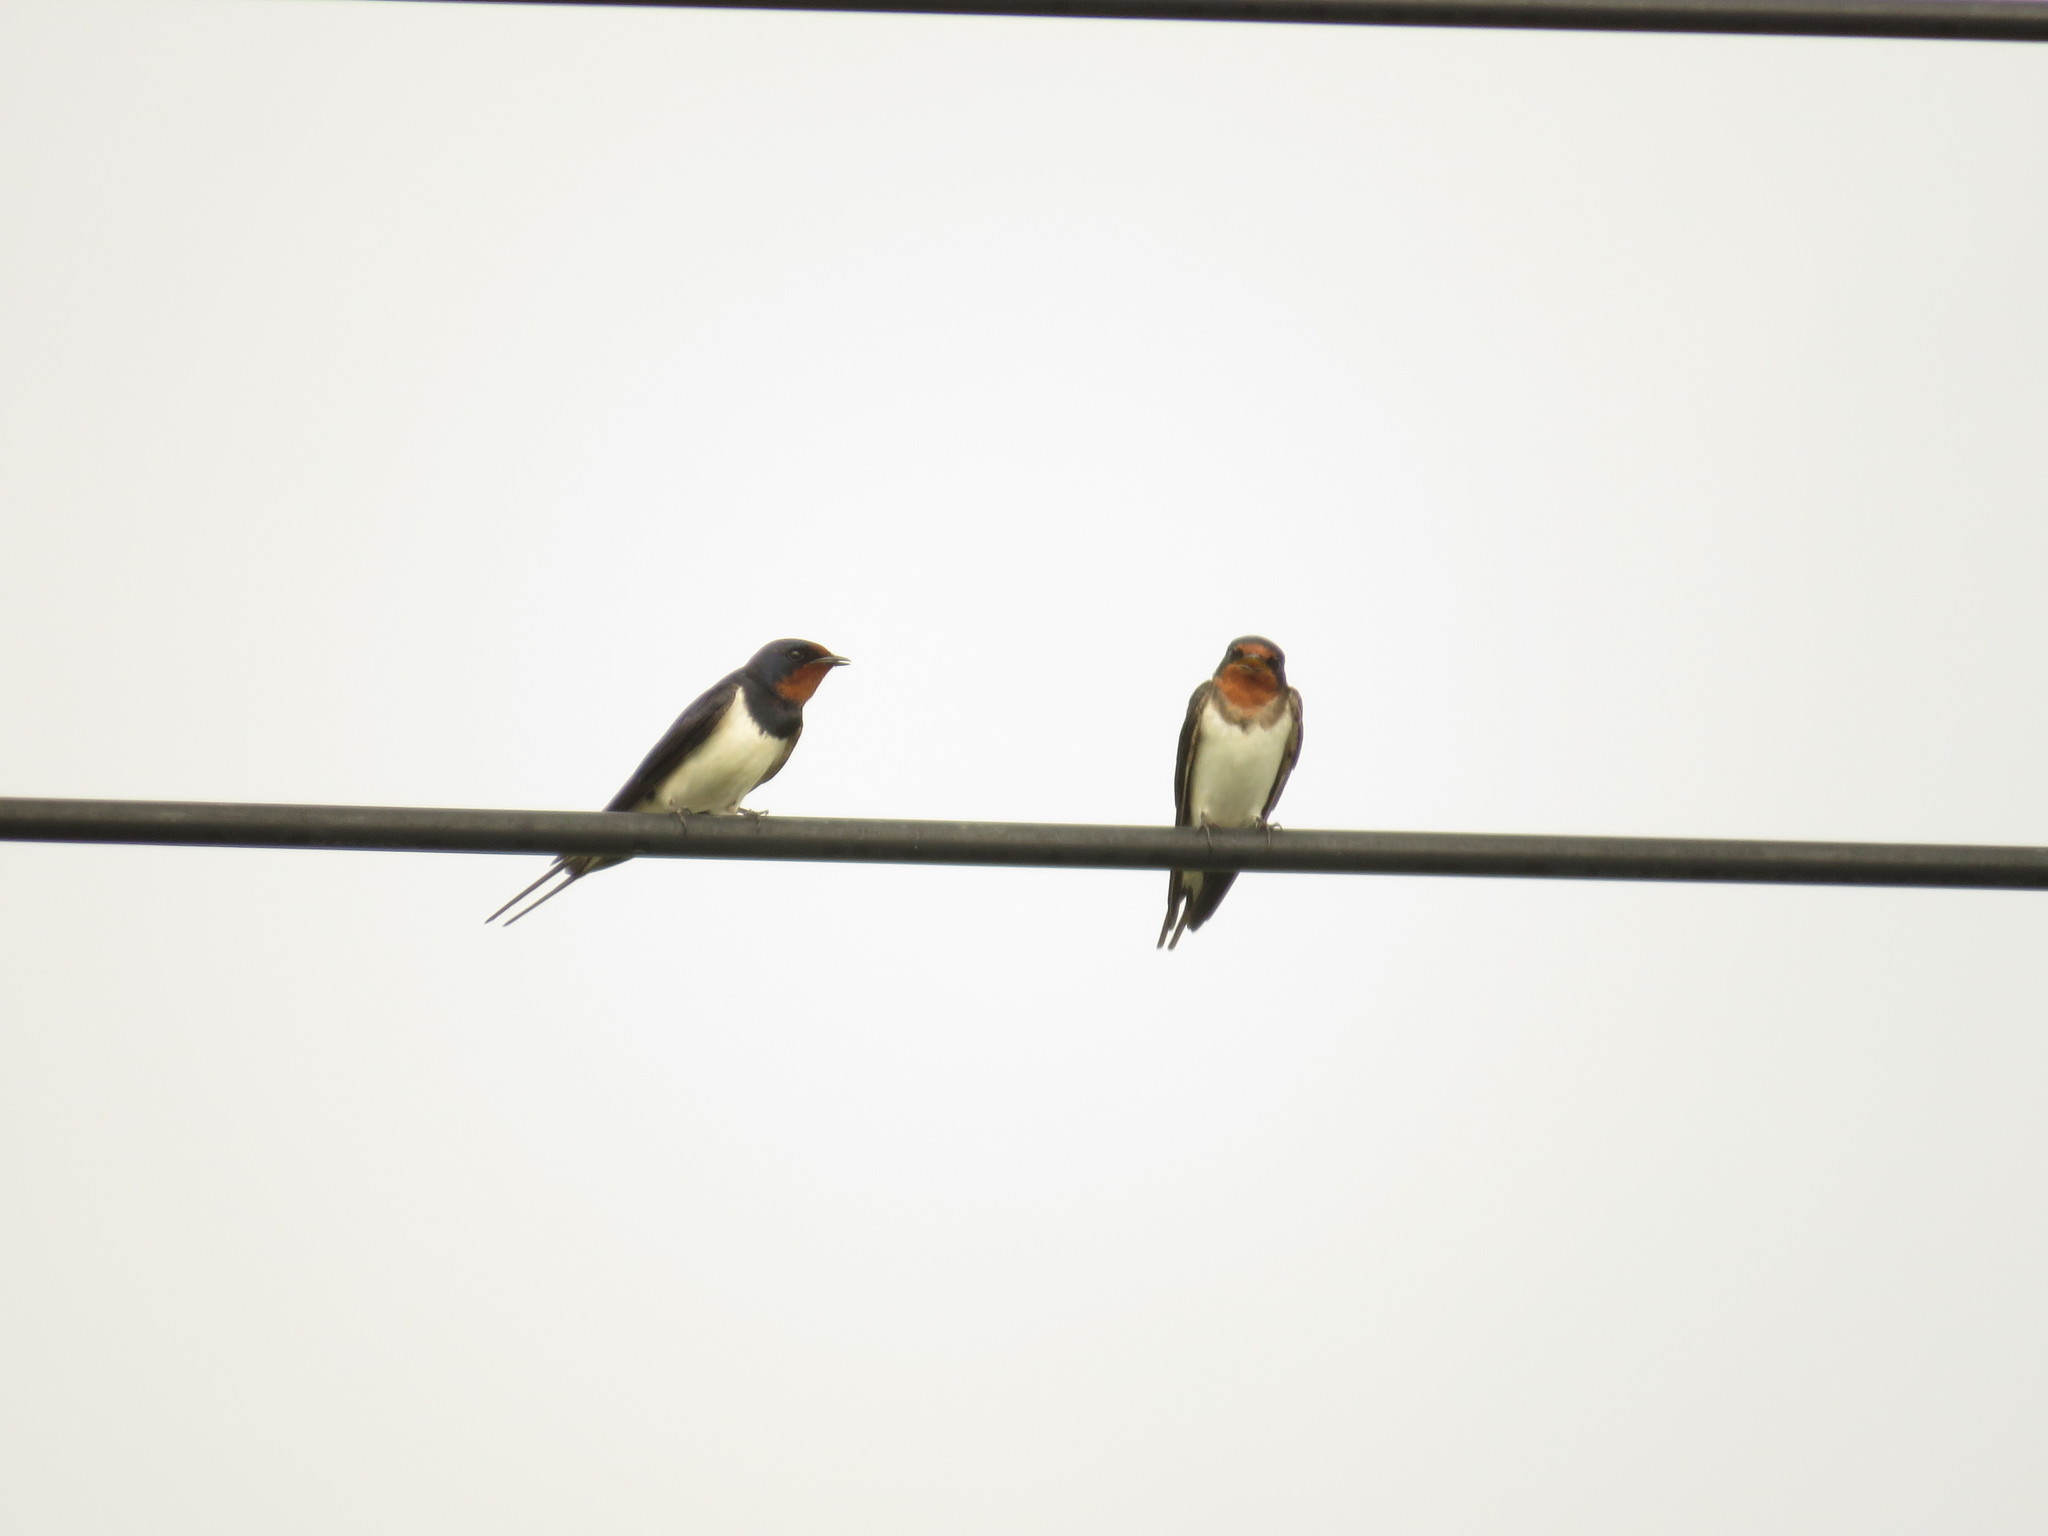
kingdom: Animalia
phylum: Chordata
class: Aves
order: Passeriformes
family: Hirundinidae
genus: Hirundo
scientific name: Hirundo rustica
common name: Barn swallow
